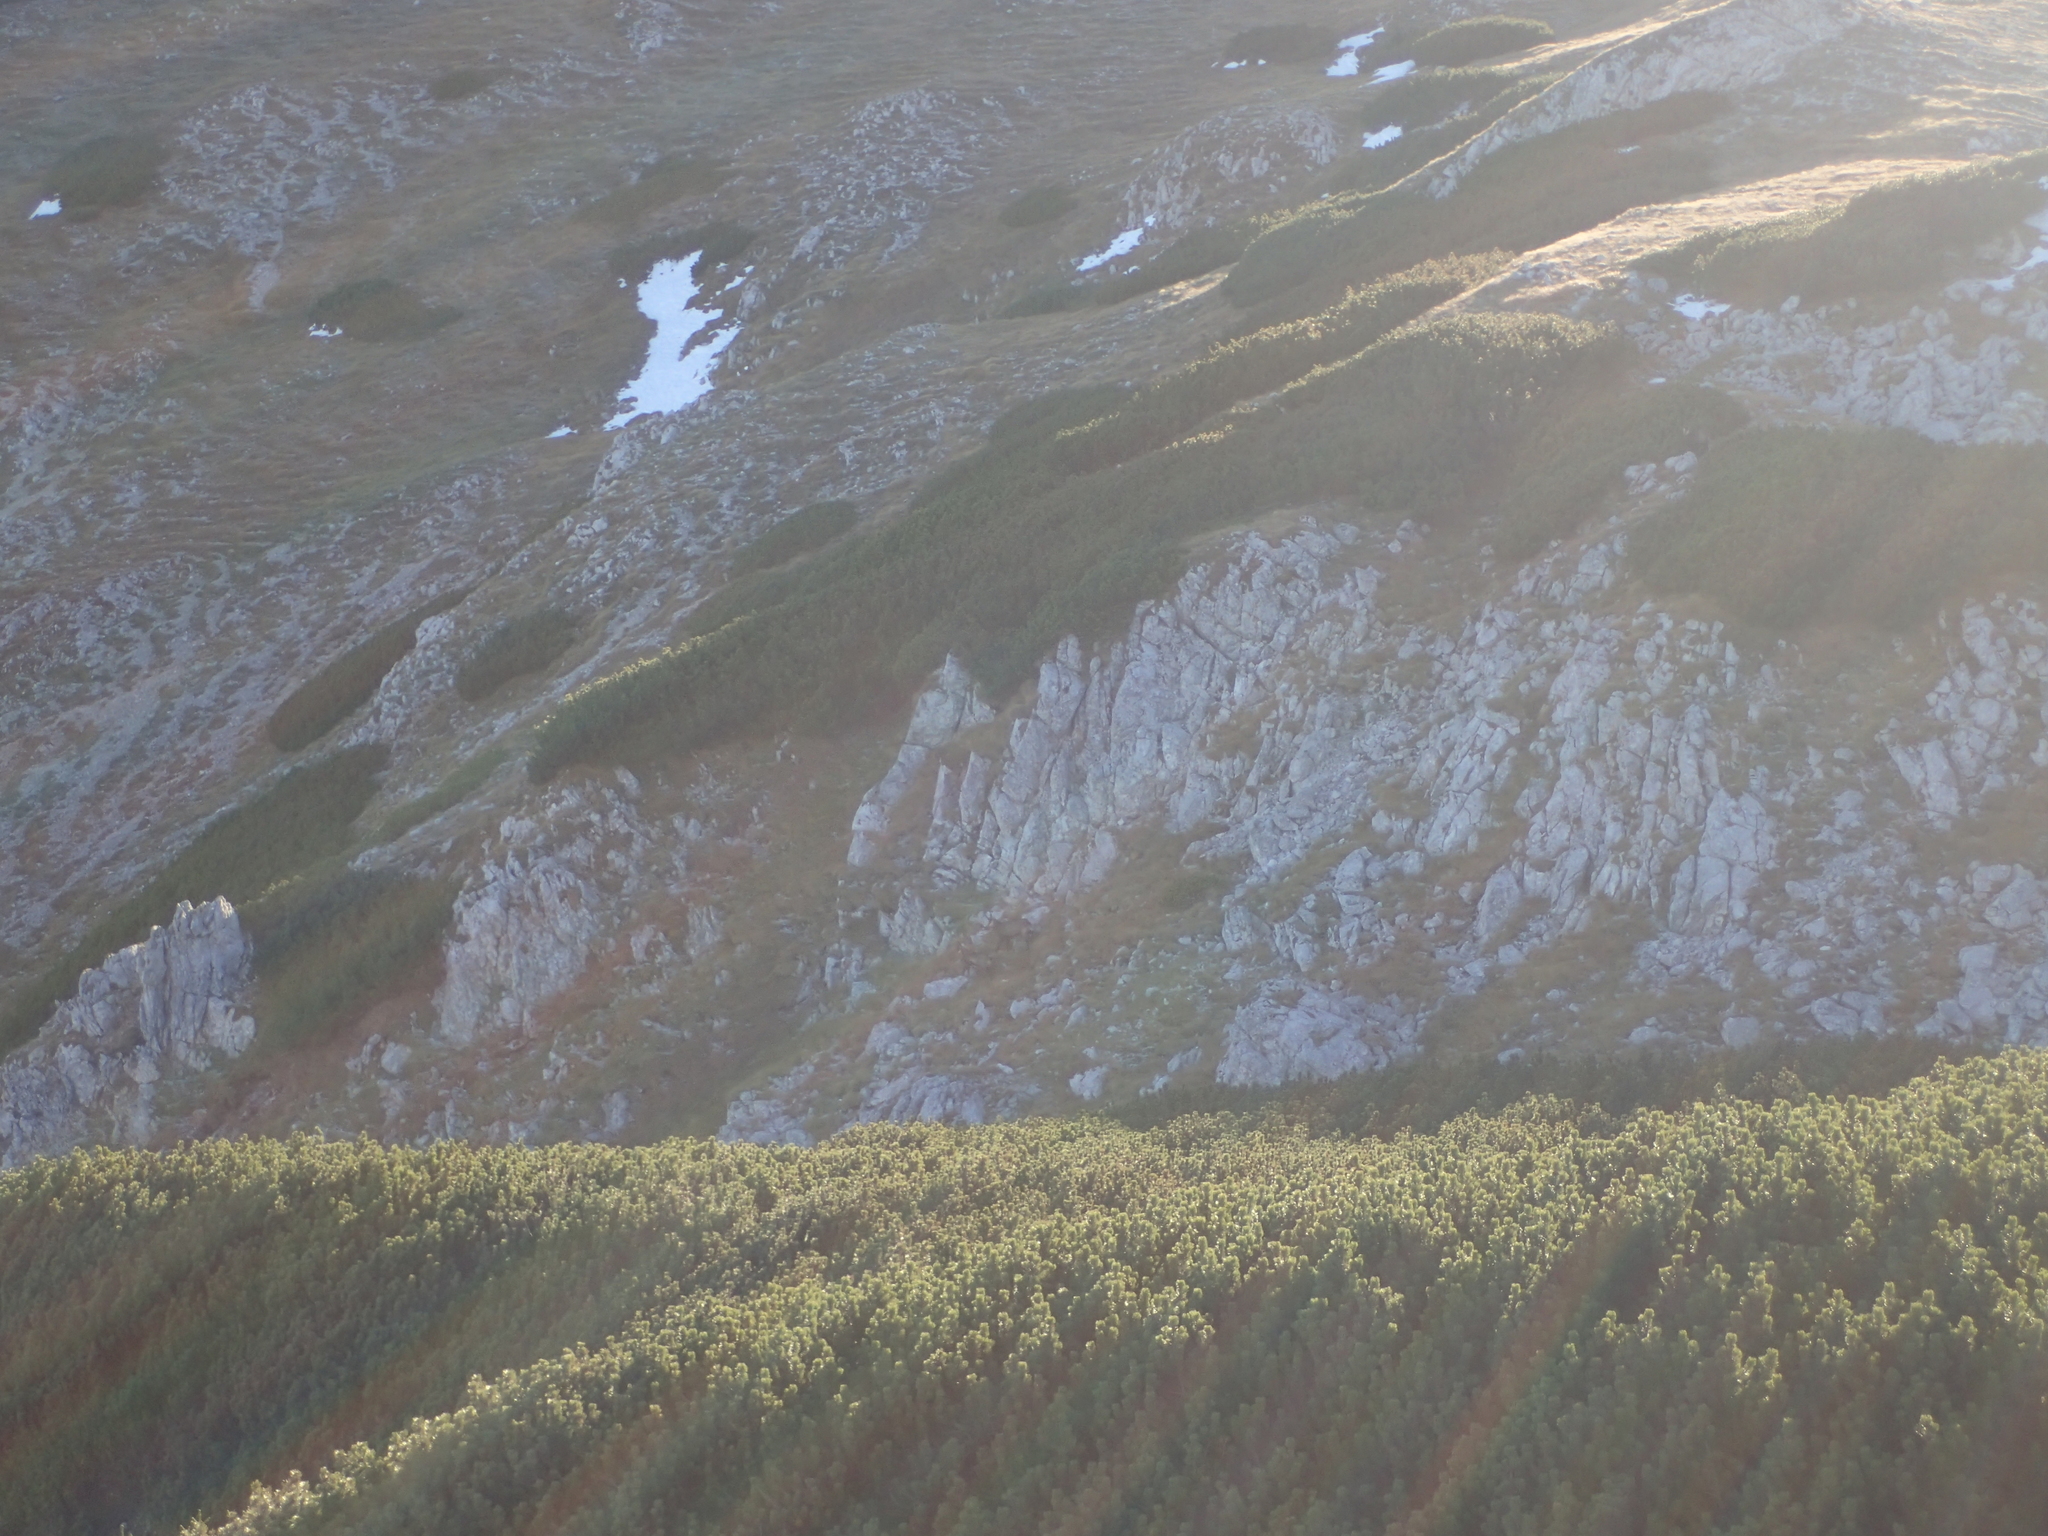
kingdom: Animalia
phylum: Chordata
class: Mammalia
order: Artiodactyla
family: Bovidae
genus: Rupicapra
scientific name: Rupicapra rupicapra
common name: Chamois
